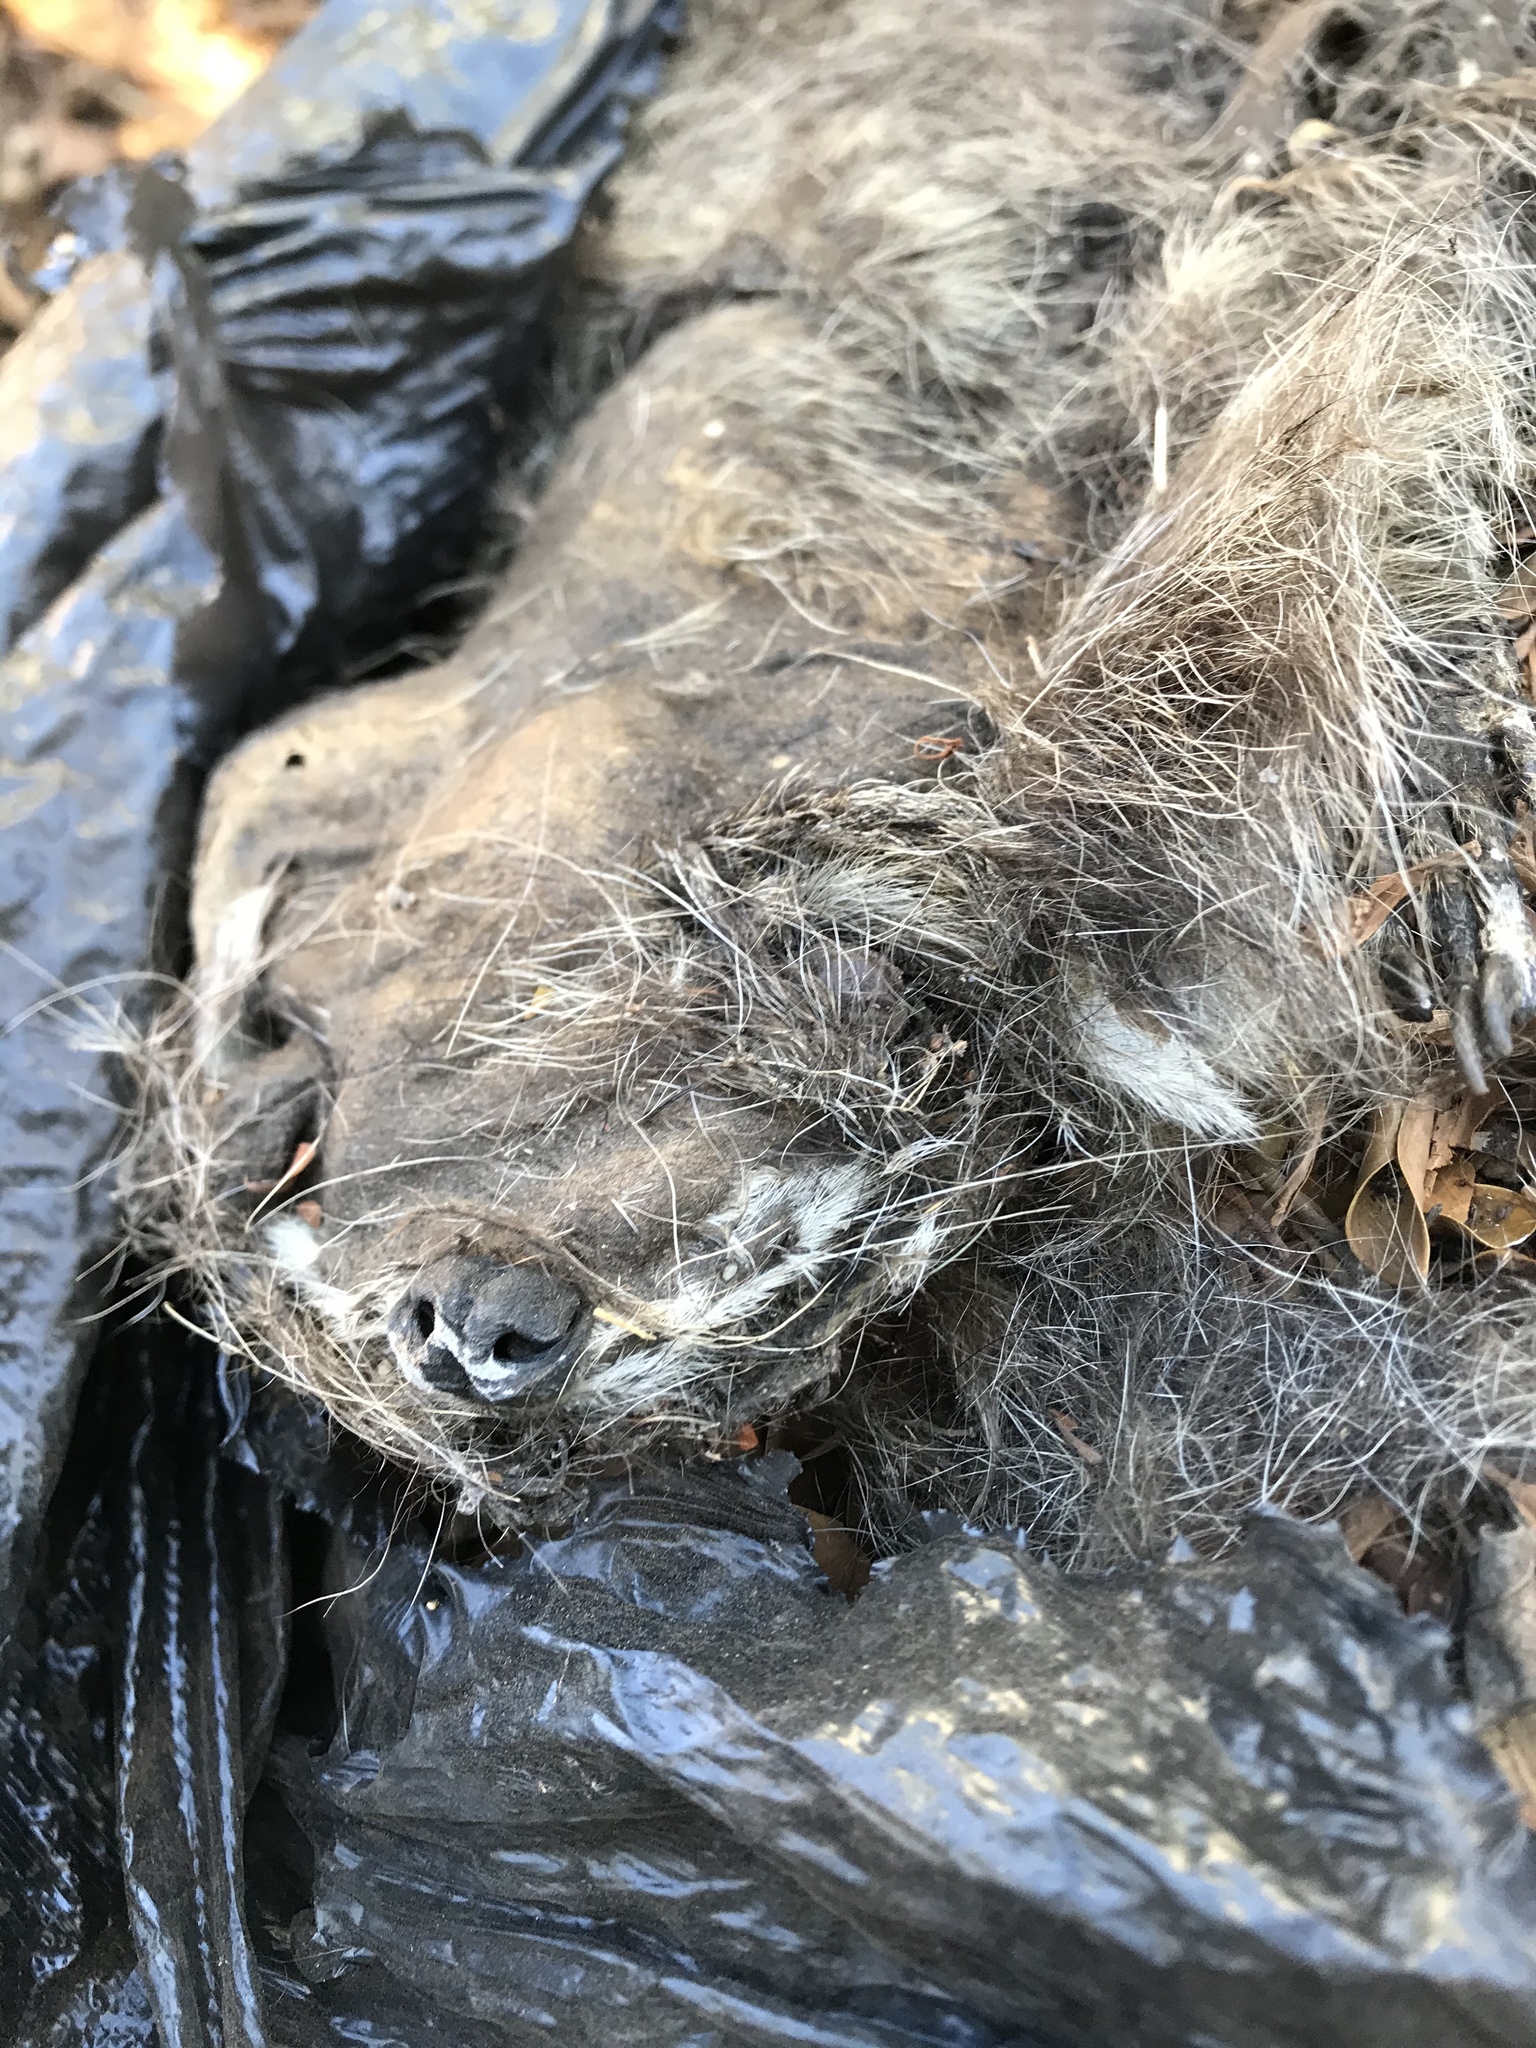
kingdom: Animalia
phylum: Chordata
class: Mammalia
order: Carnivora
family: Procyonidae
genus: Procyon
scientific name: Procyon lotor
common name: Raccoon
